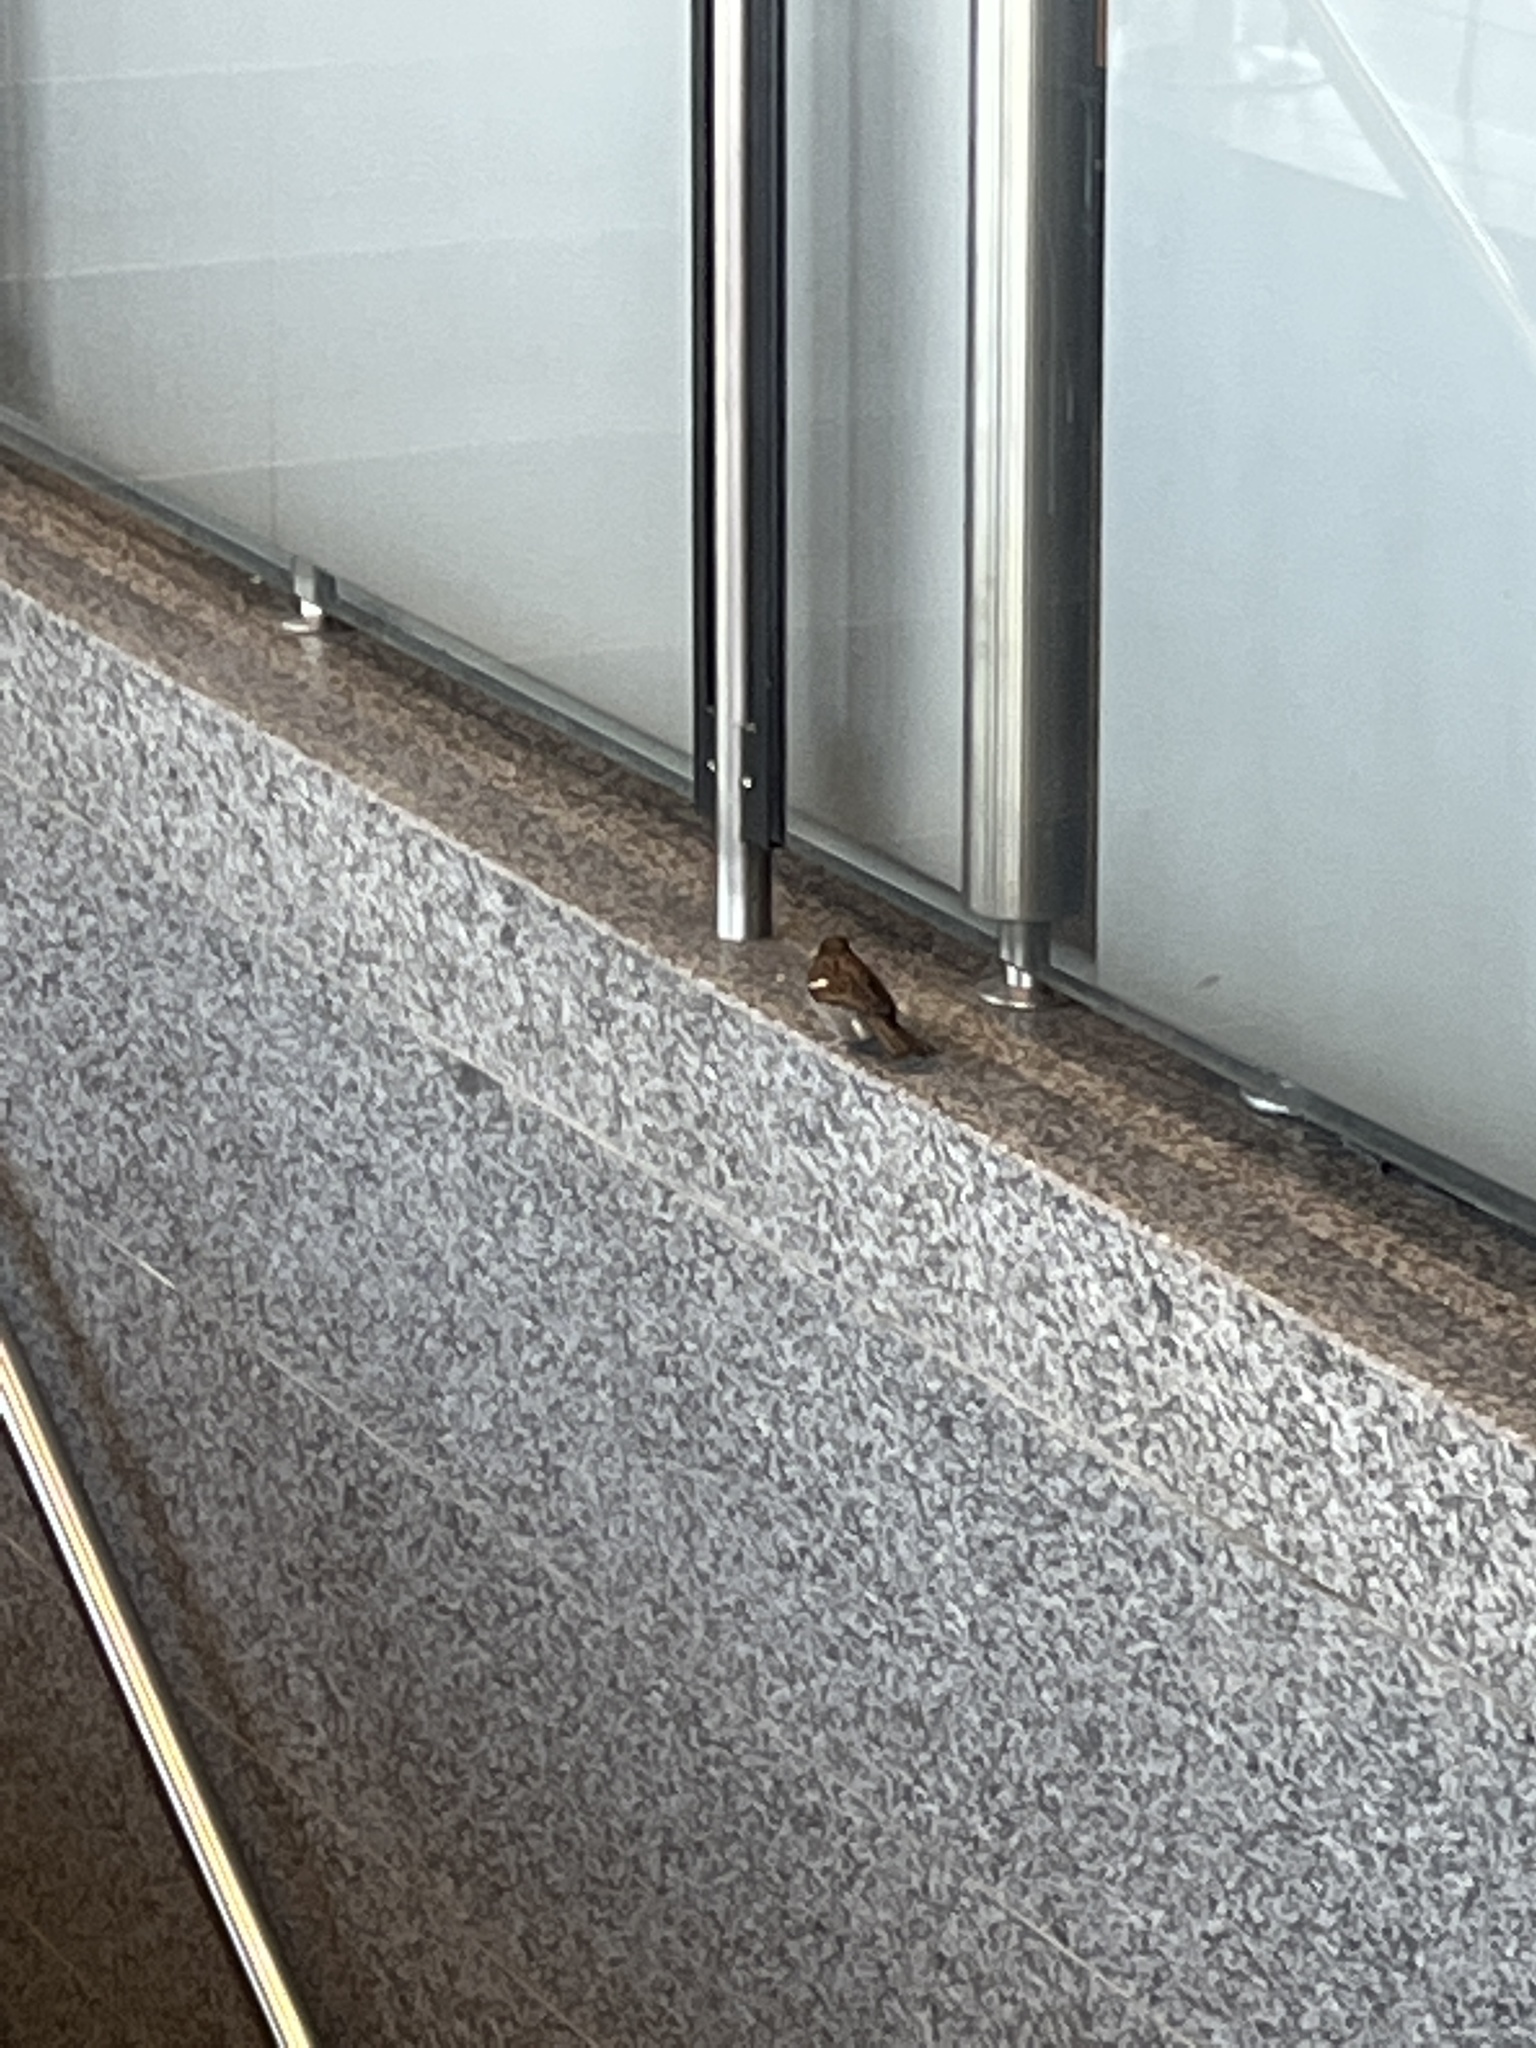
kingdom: Animalia
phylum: Chordata
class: Aves
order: Passeriformes
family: Passeridae
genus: Passer
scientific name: Passer domesticus
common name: House sparrow
